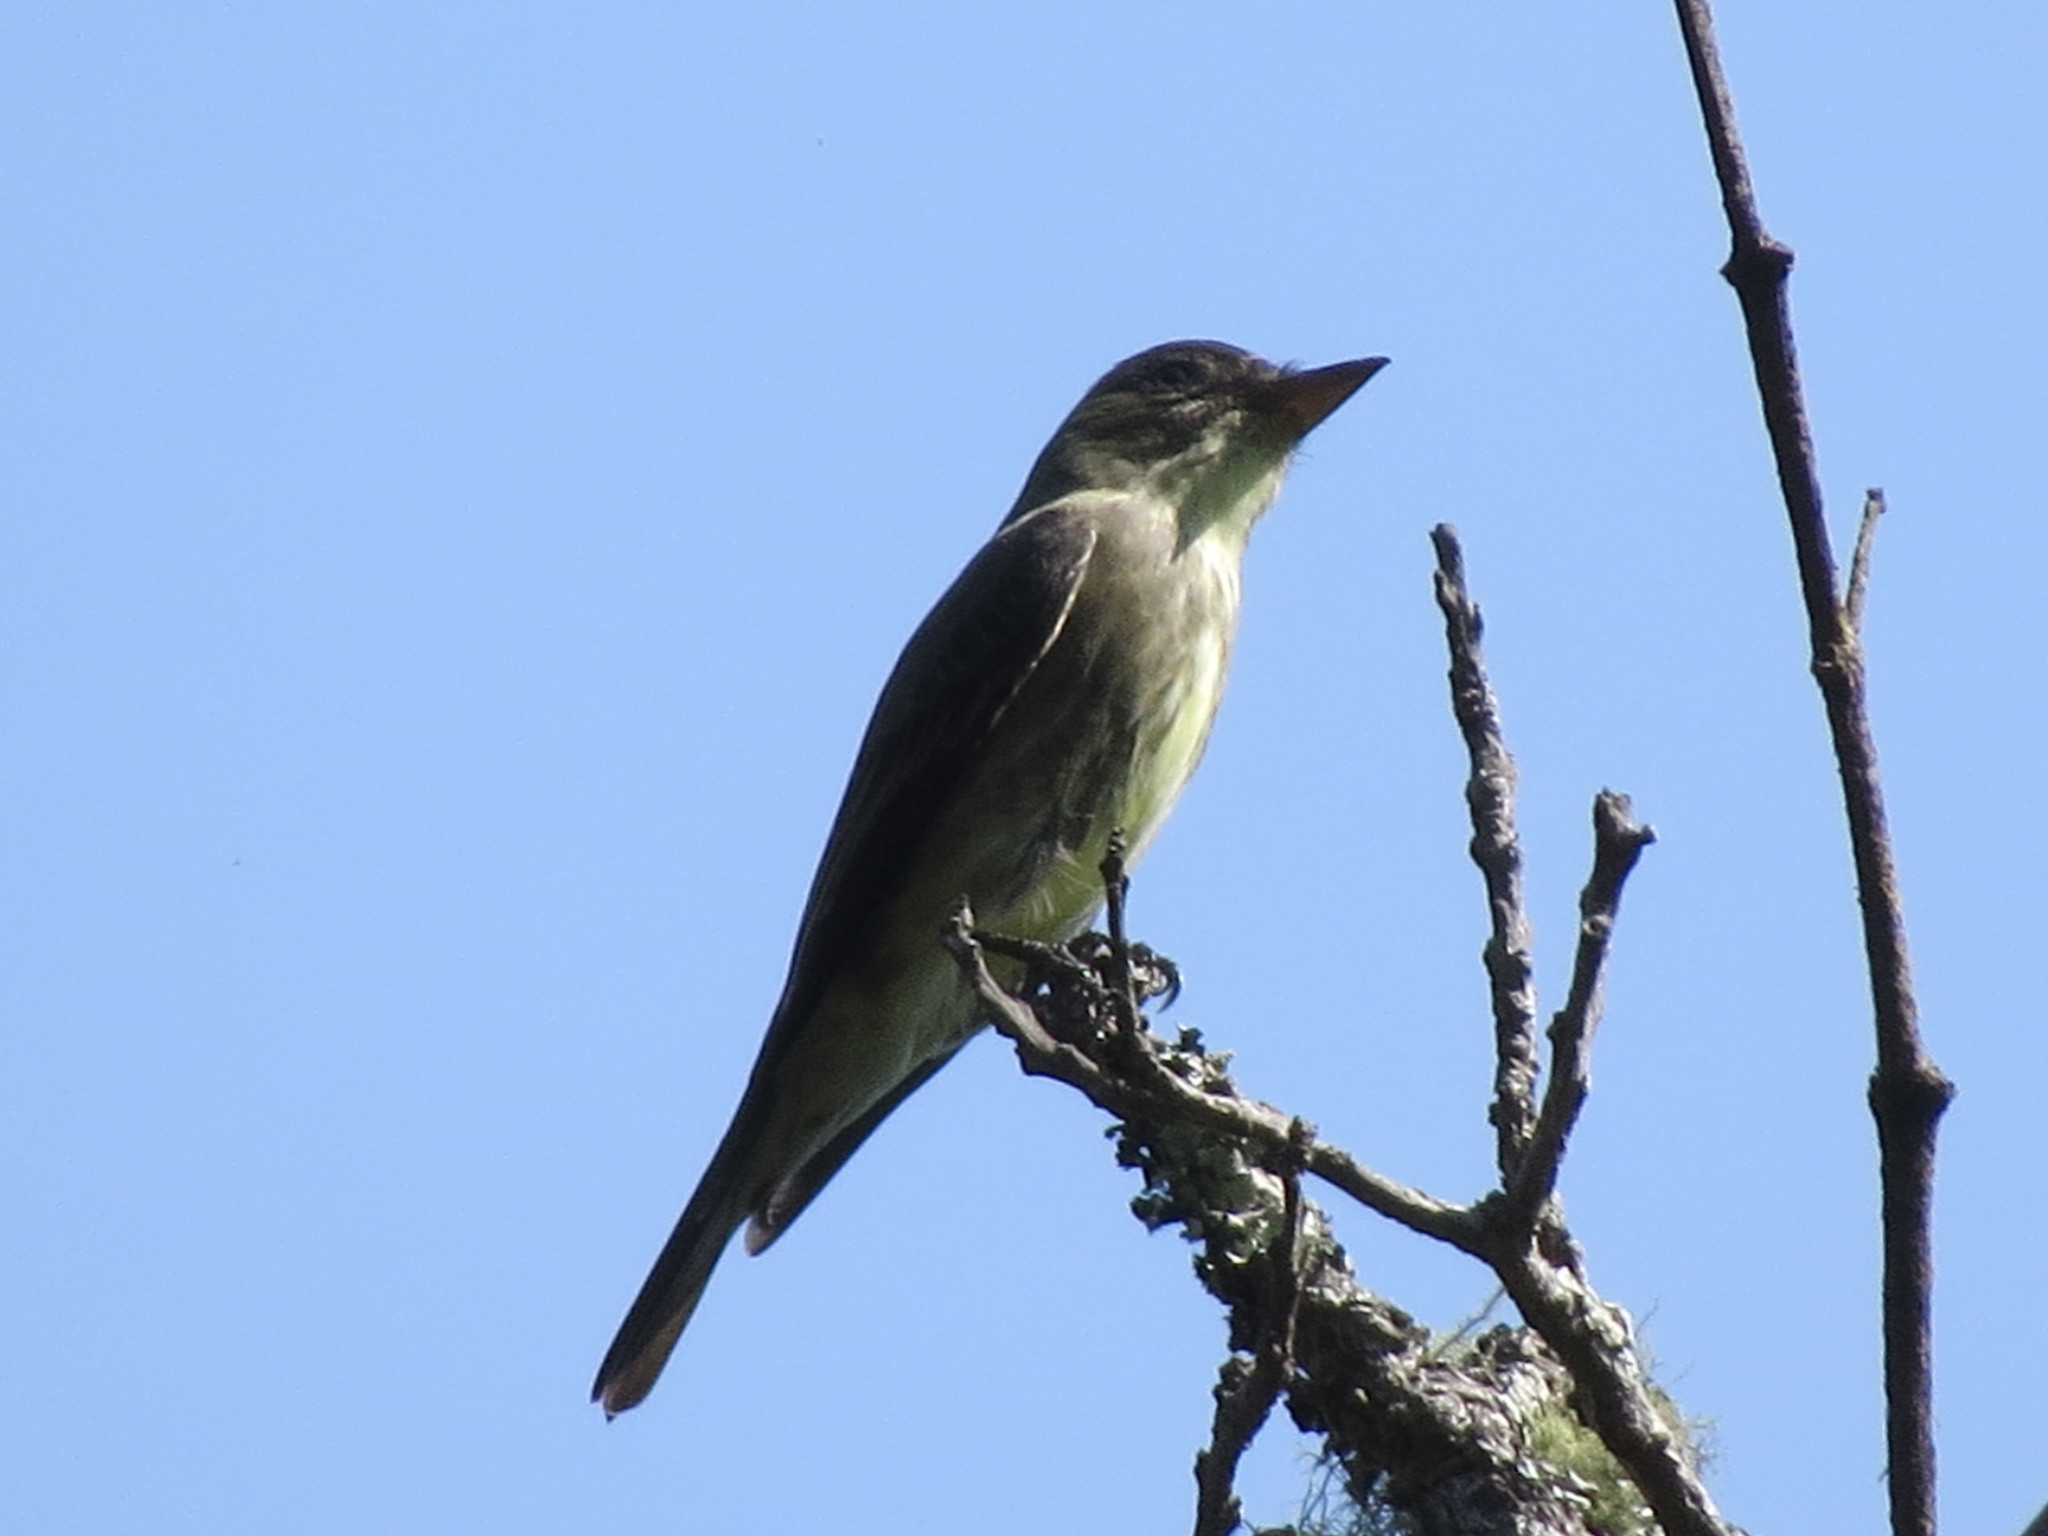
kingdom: Animalia
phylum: Chordata
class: Aves
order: Passeriformes
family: Tyrannidae
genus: Contopus
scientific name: Contopus cooperi
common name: Olive-sided flycatcher
